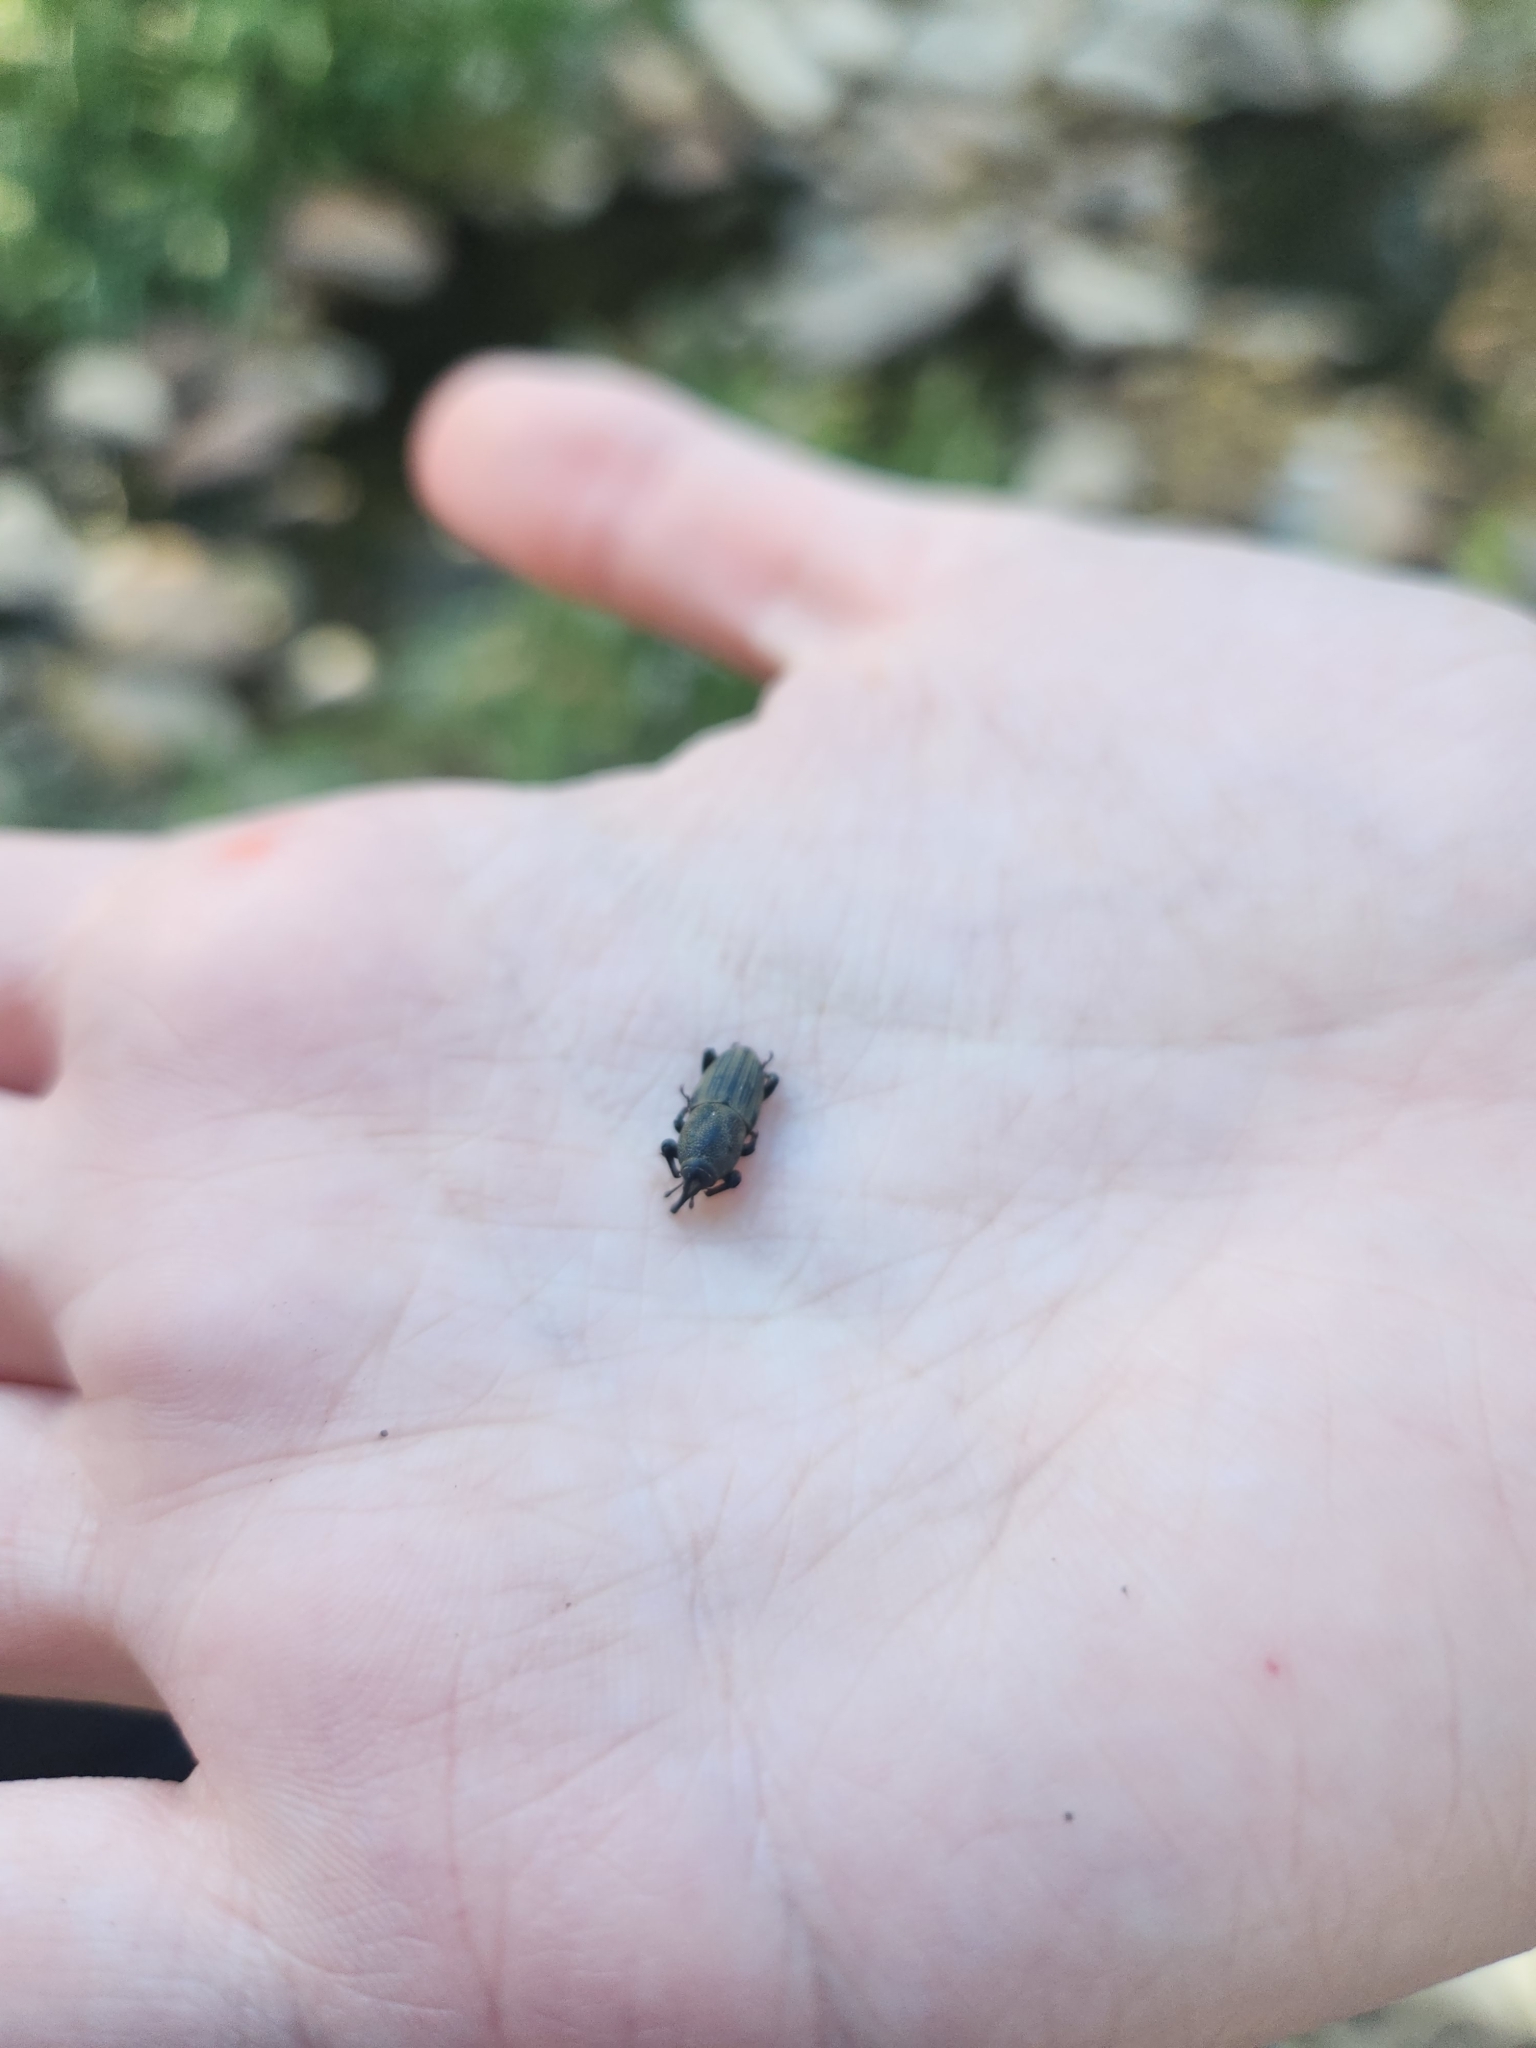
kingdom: Animalia
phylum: Arthropoda
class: Insecta
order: Coleoptera
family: Dryophthoridae
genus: Sphenophorus
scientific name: Sphenophorus coesifrons
